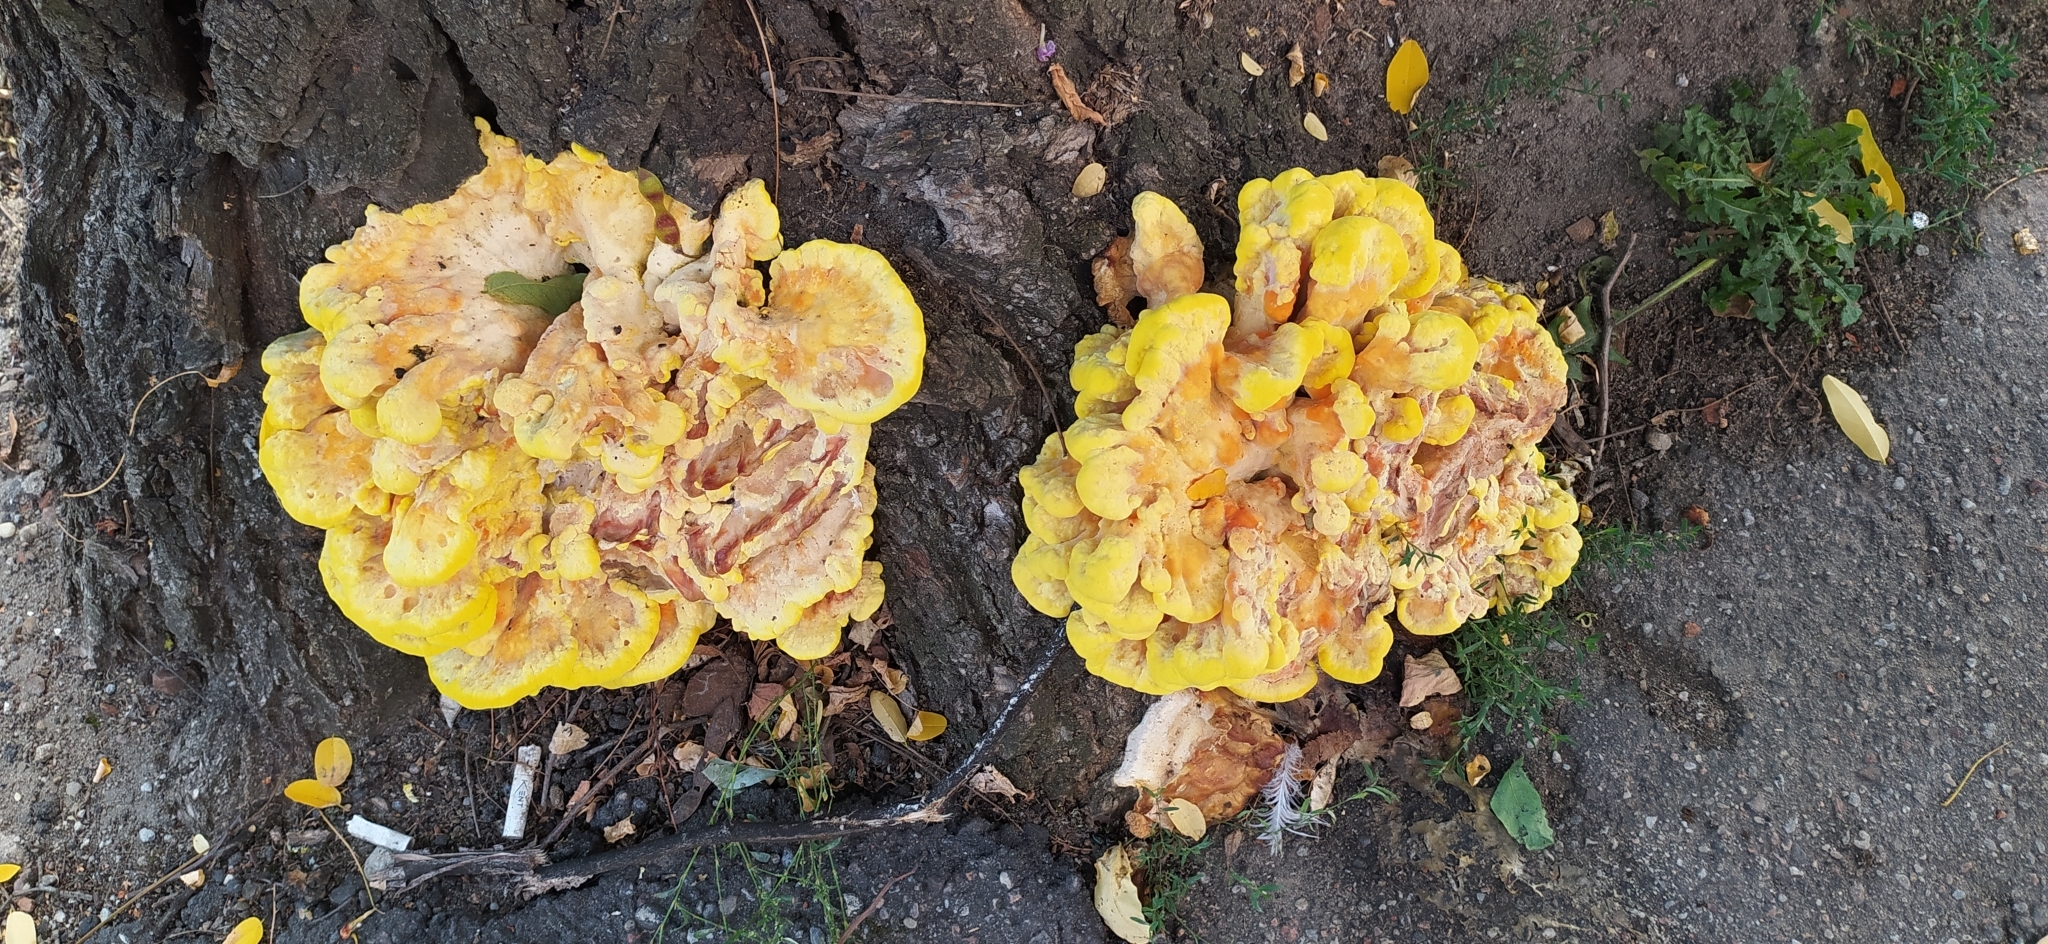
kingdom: Fungi
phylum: Basidiomycota
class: Agaricomycetes
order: Polyporales
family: Laetiporaceae
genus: Laetiporus
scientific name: Laetiporus sulphureus
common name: Chicken of the woods
